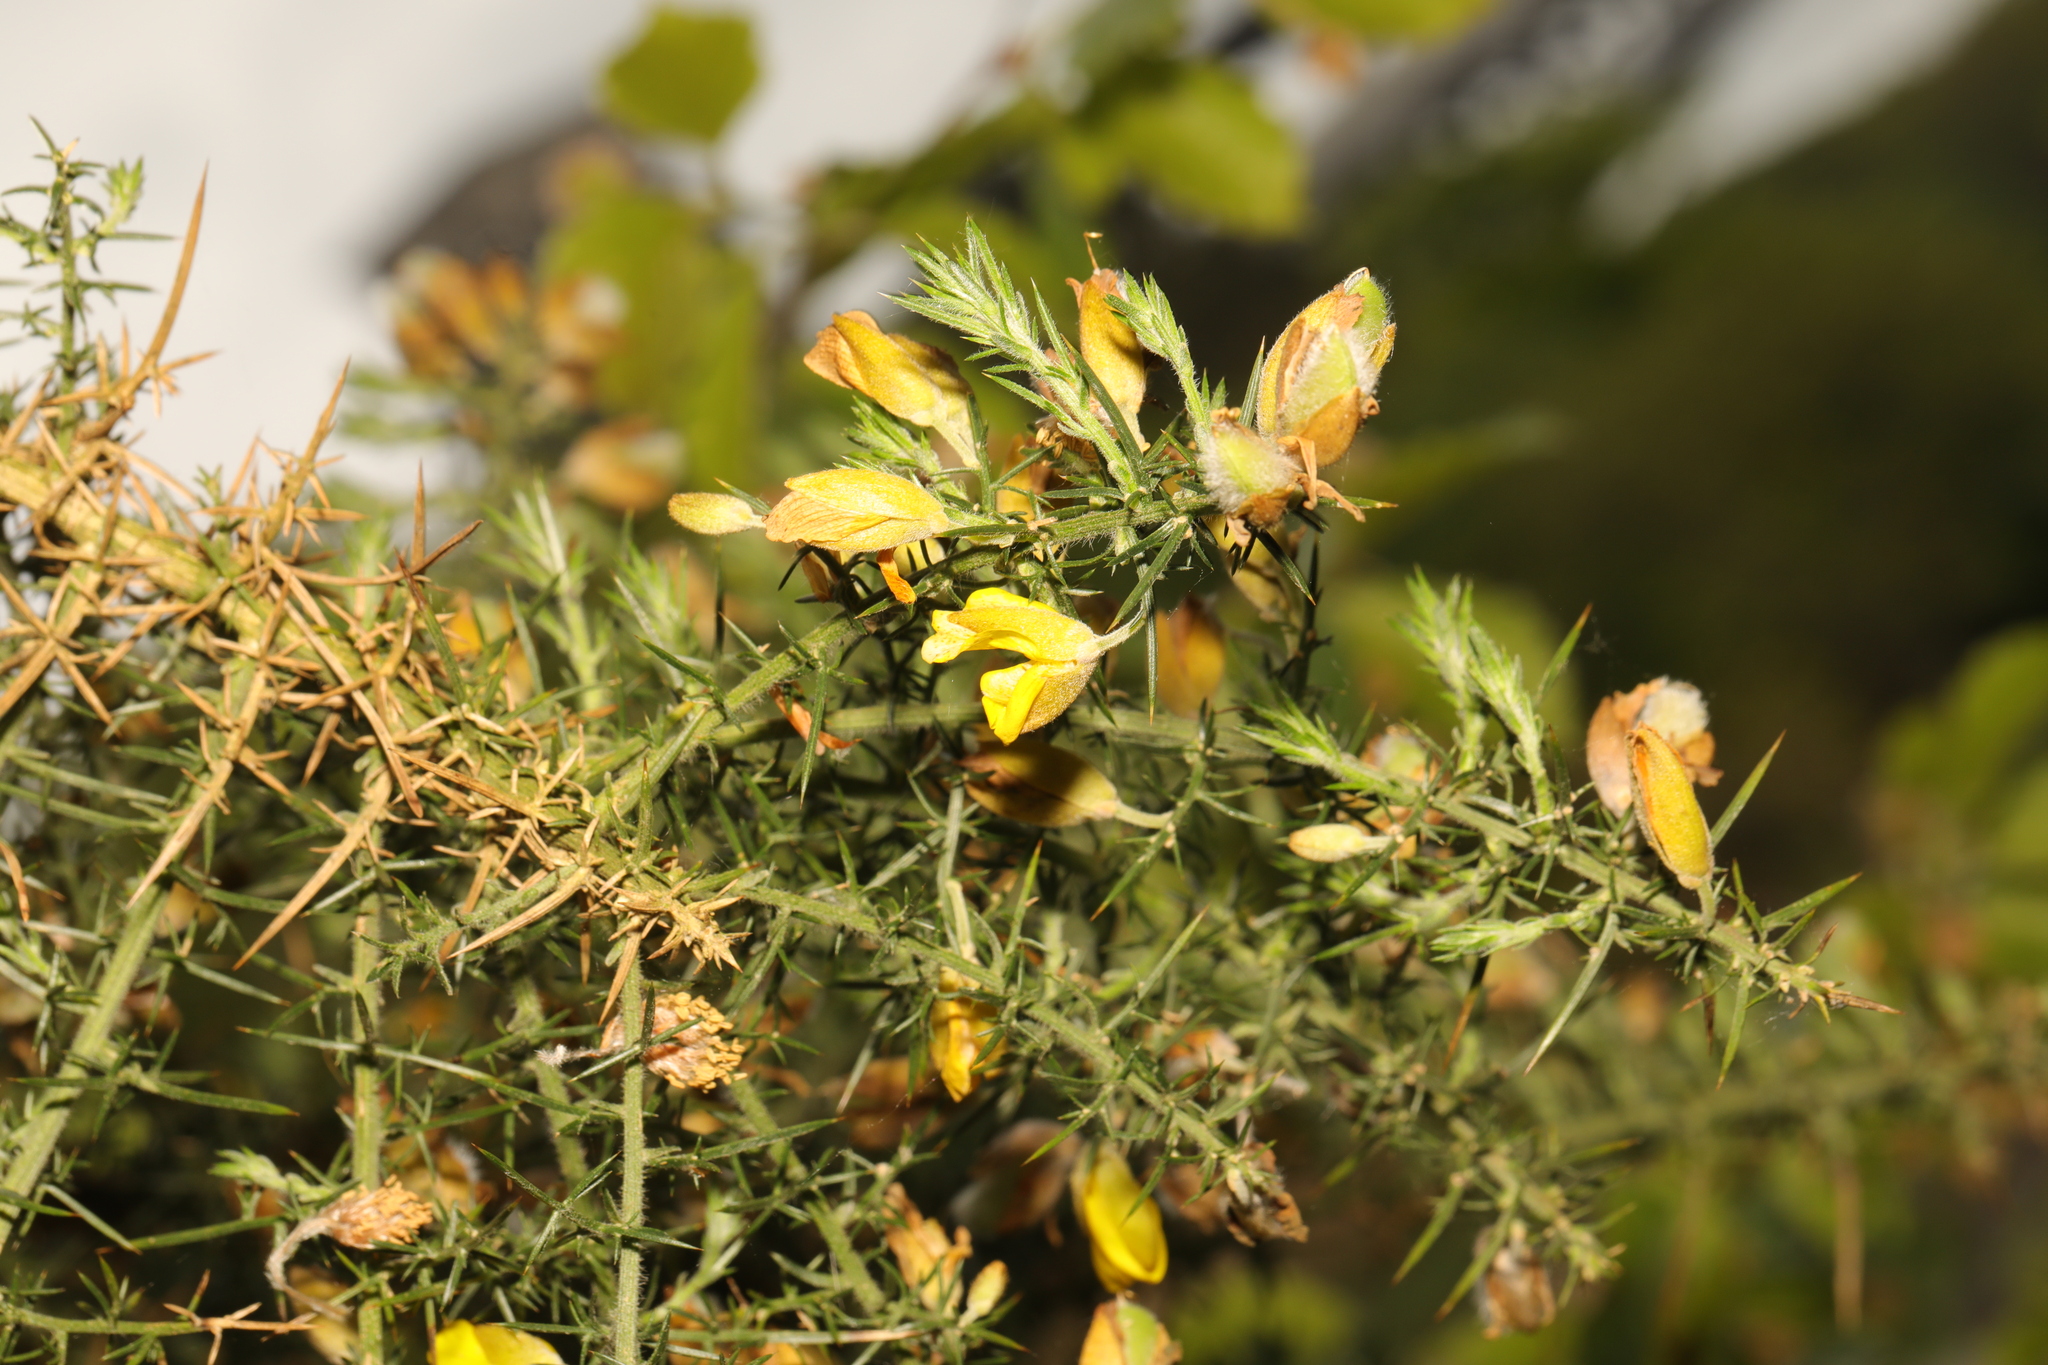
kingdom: Plantae
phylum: Tracheophyta
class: Magnoliopsida
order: Fabales
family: Fabaceae
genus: Ulex
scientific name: Ulex europaeus
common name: Common gorse
